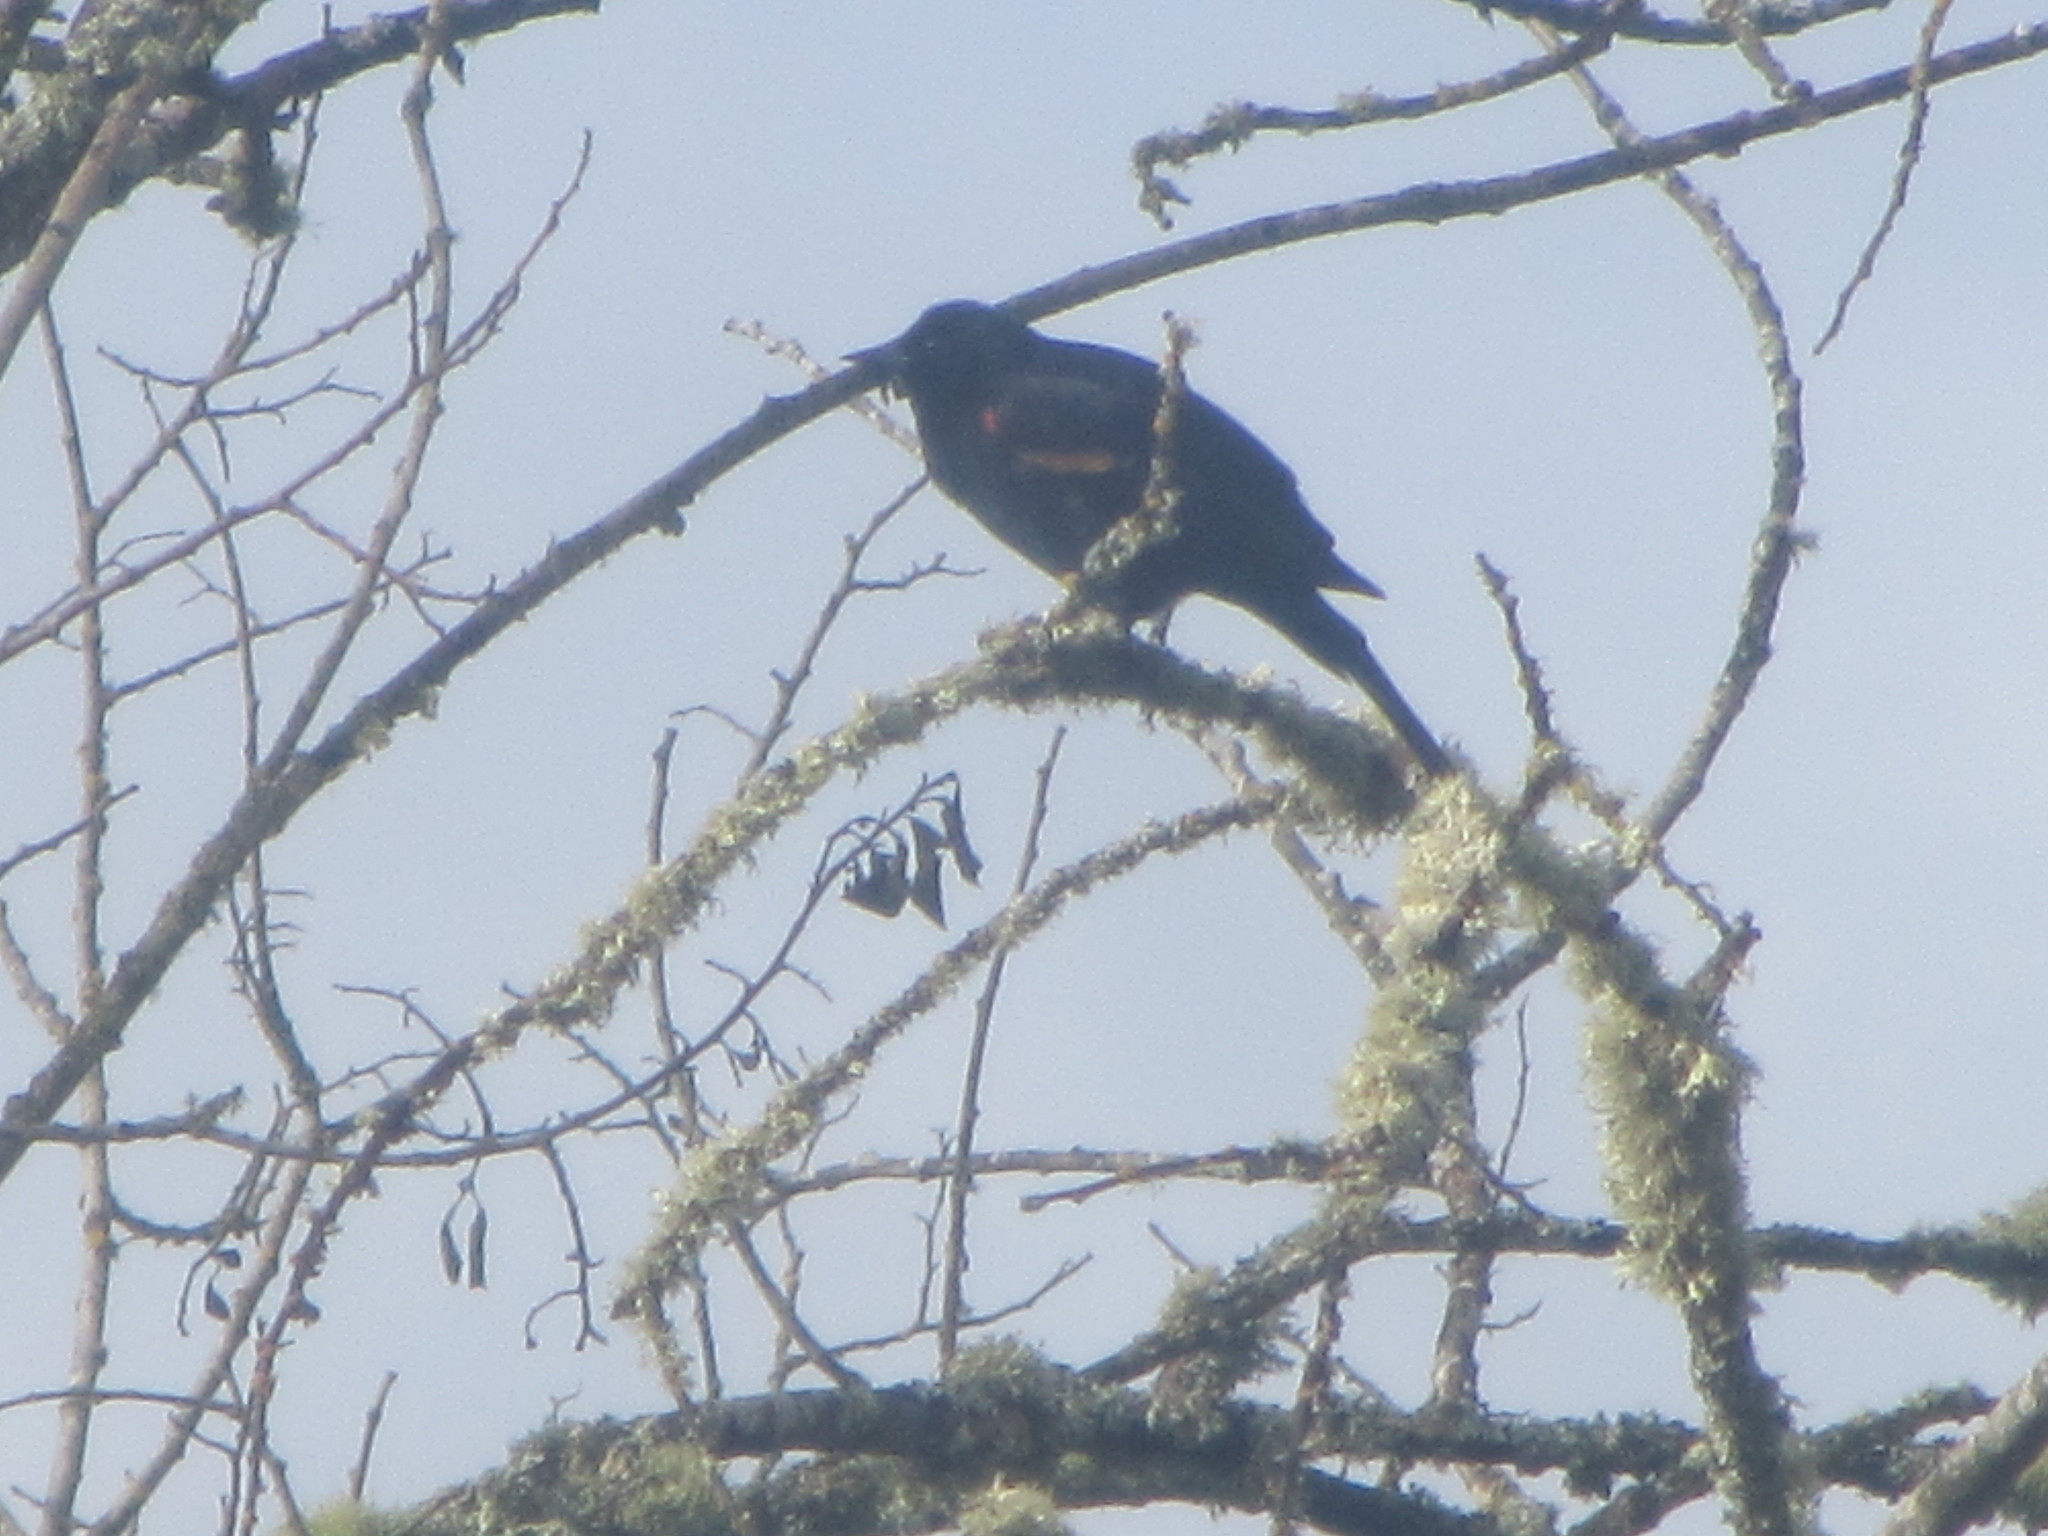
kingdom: Animalia
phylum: Chordata
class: Aves
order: Passeriformes
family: Icteridae
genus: Agelaius
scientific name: Agelaius phoeniceus
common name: Red-winged blackbird
